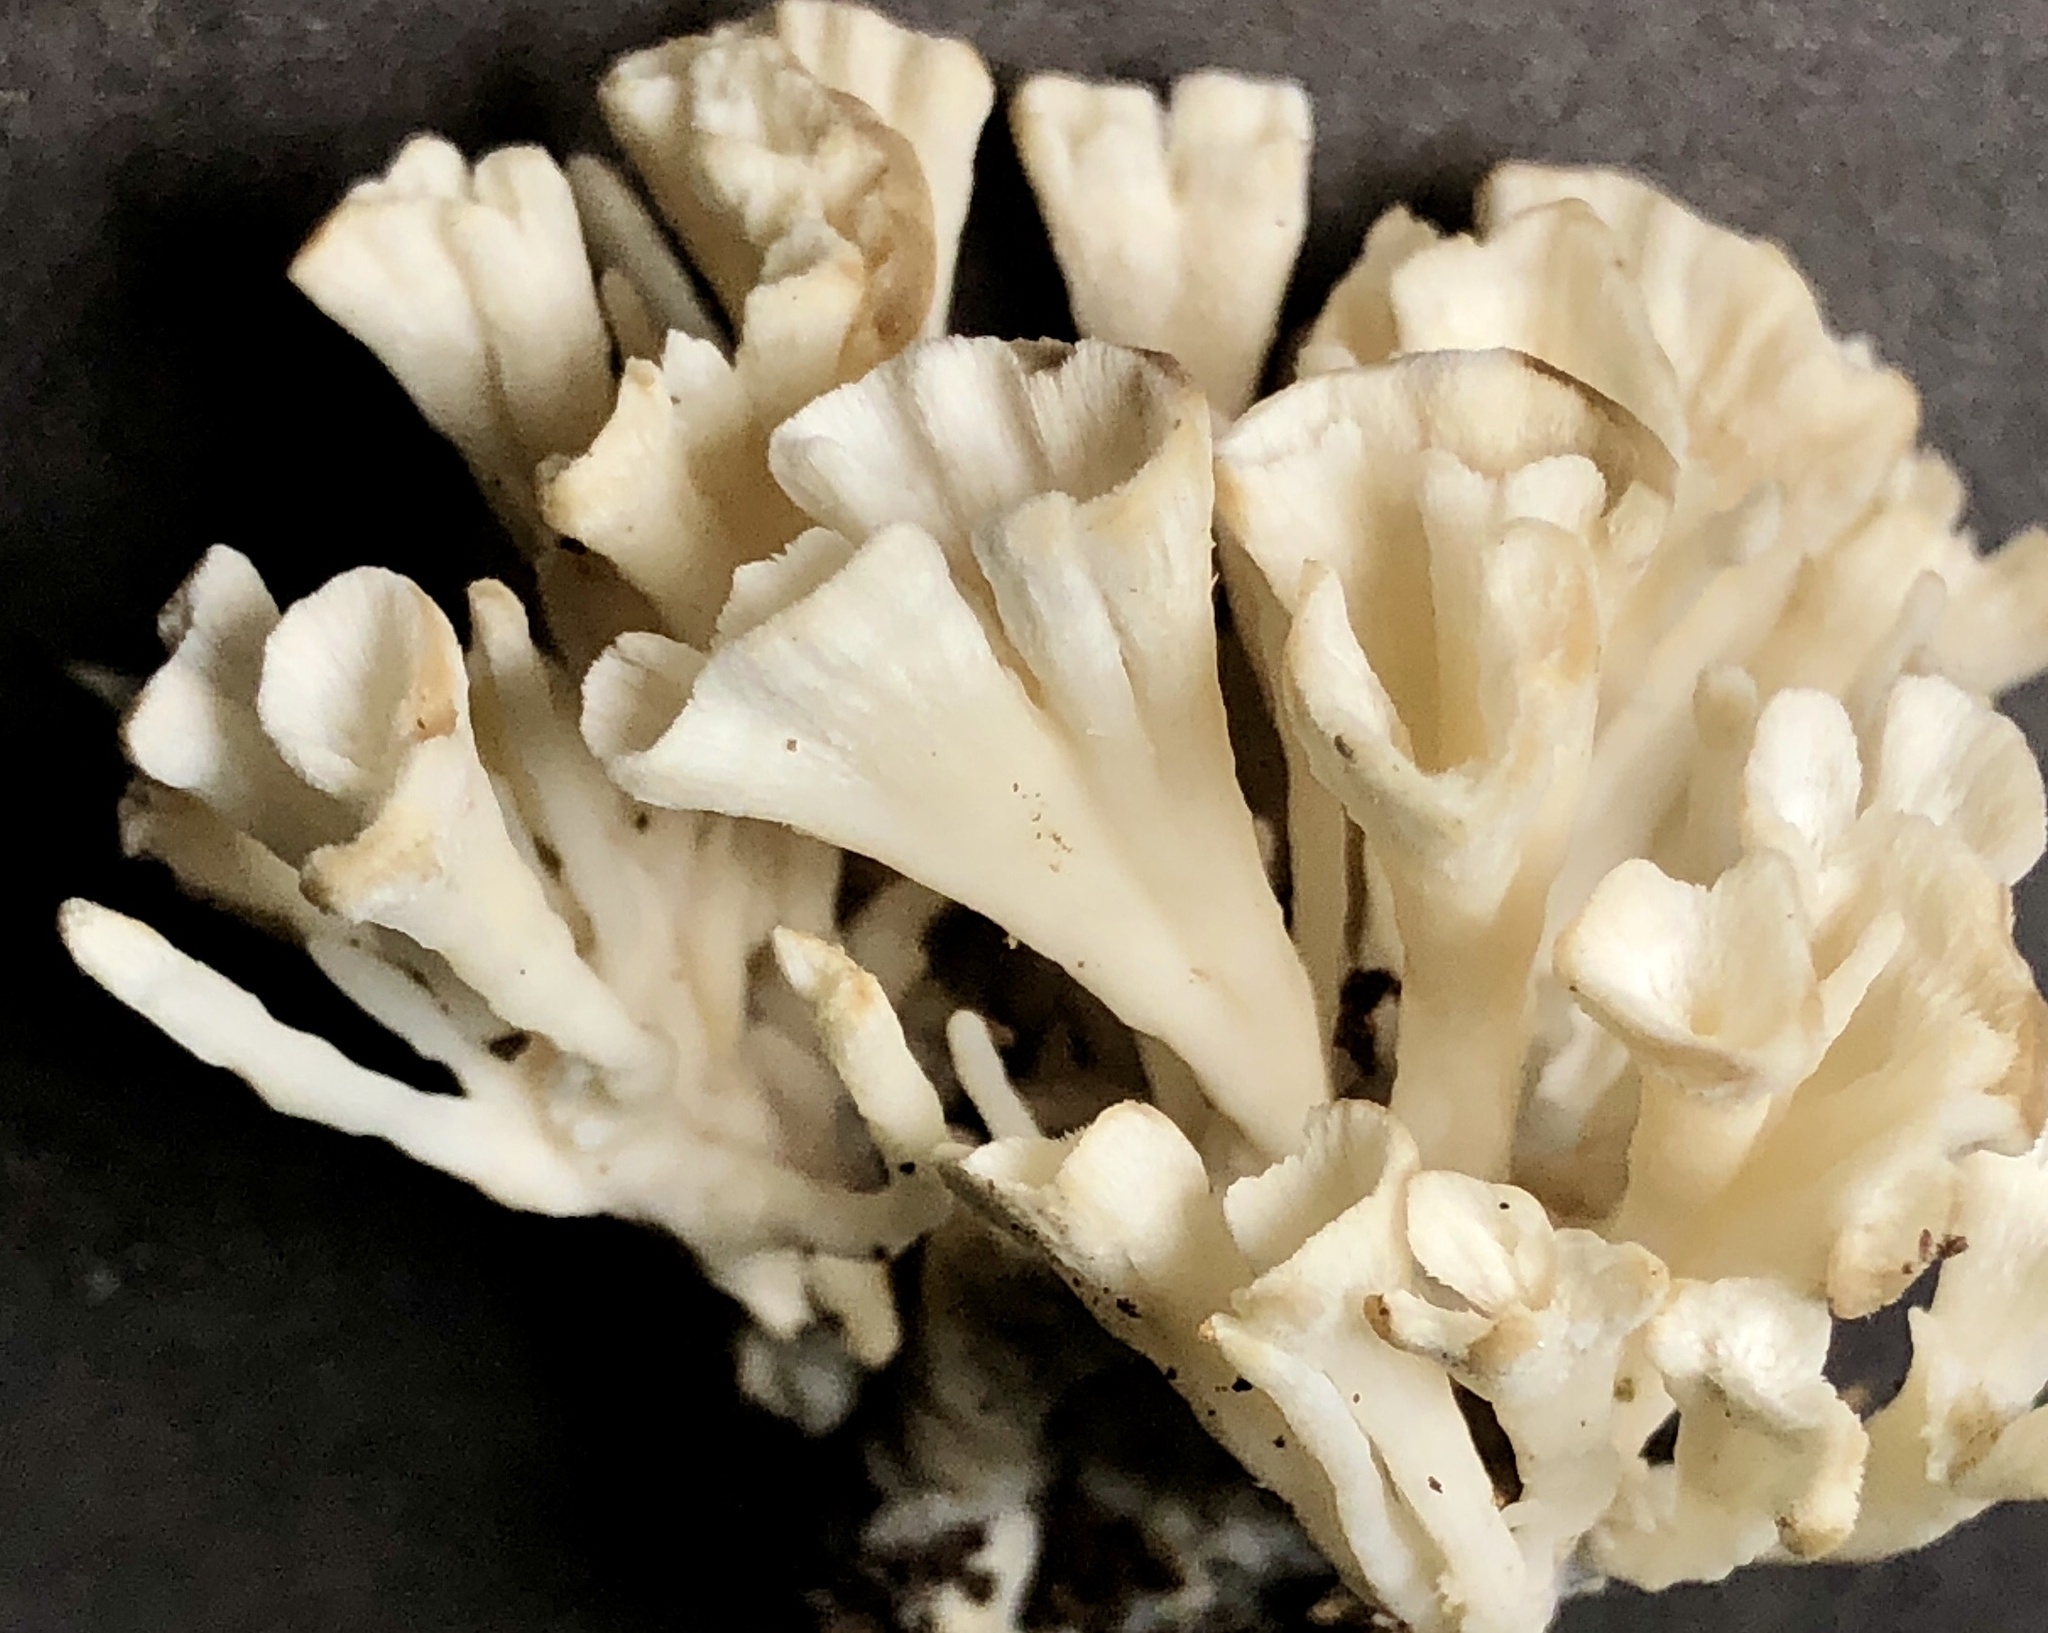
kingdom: Fungi
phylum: Basidiomycota
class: Agaricomycetes
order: Sebacinales
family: Sebacinaceae
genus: Sebacina
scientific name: Sebacina schweinitzii
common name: Jellied false coral fungus
